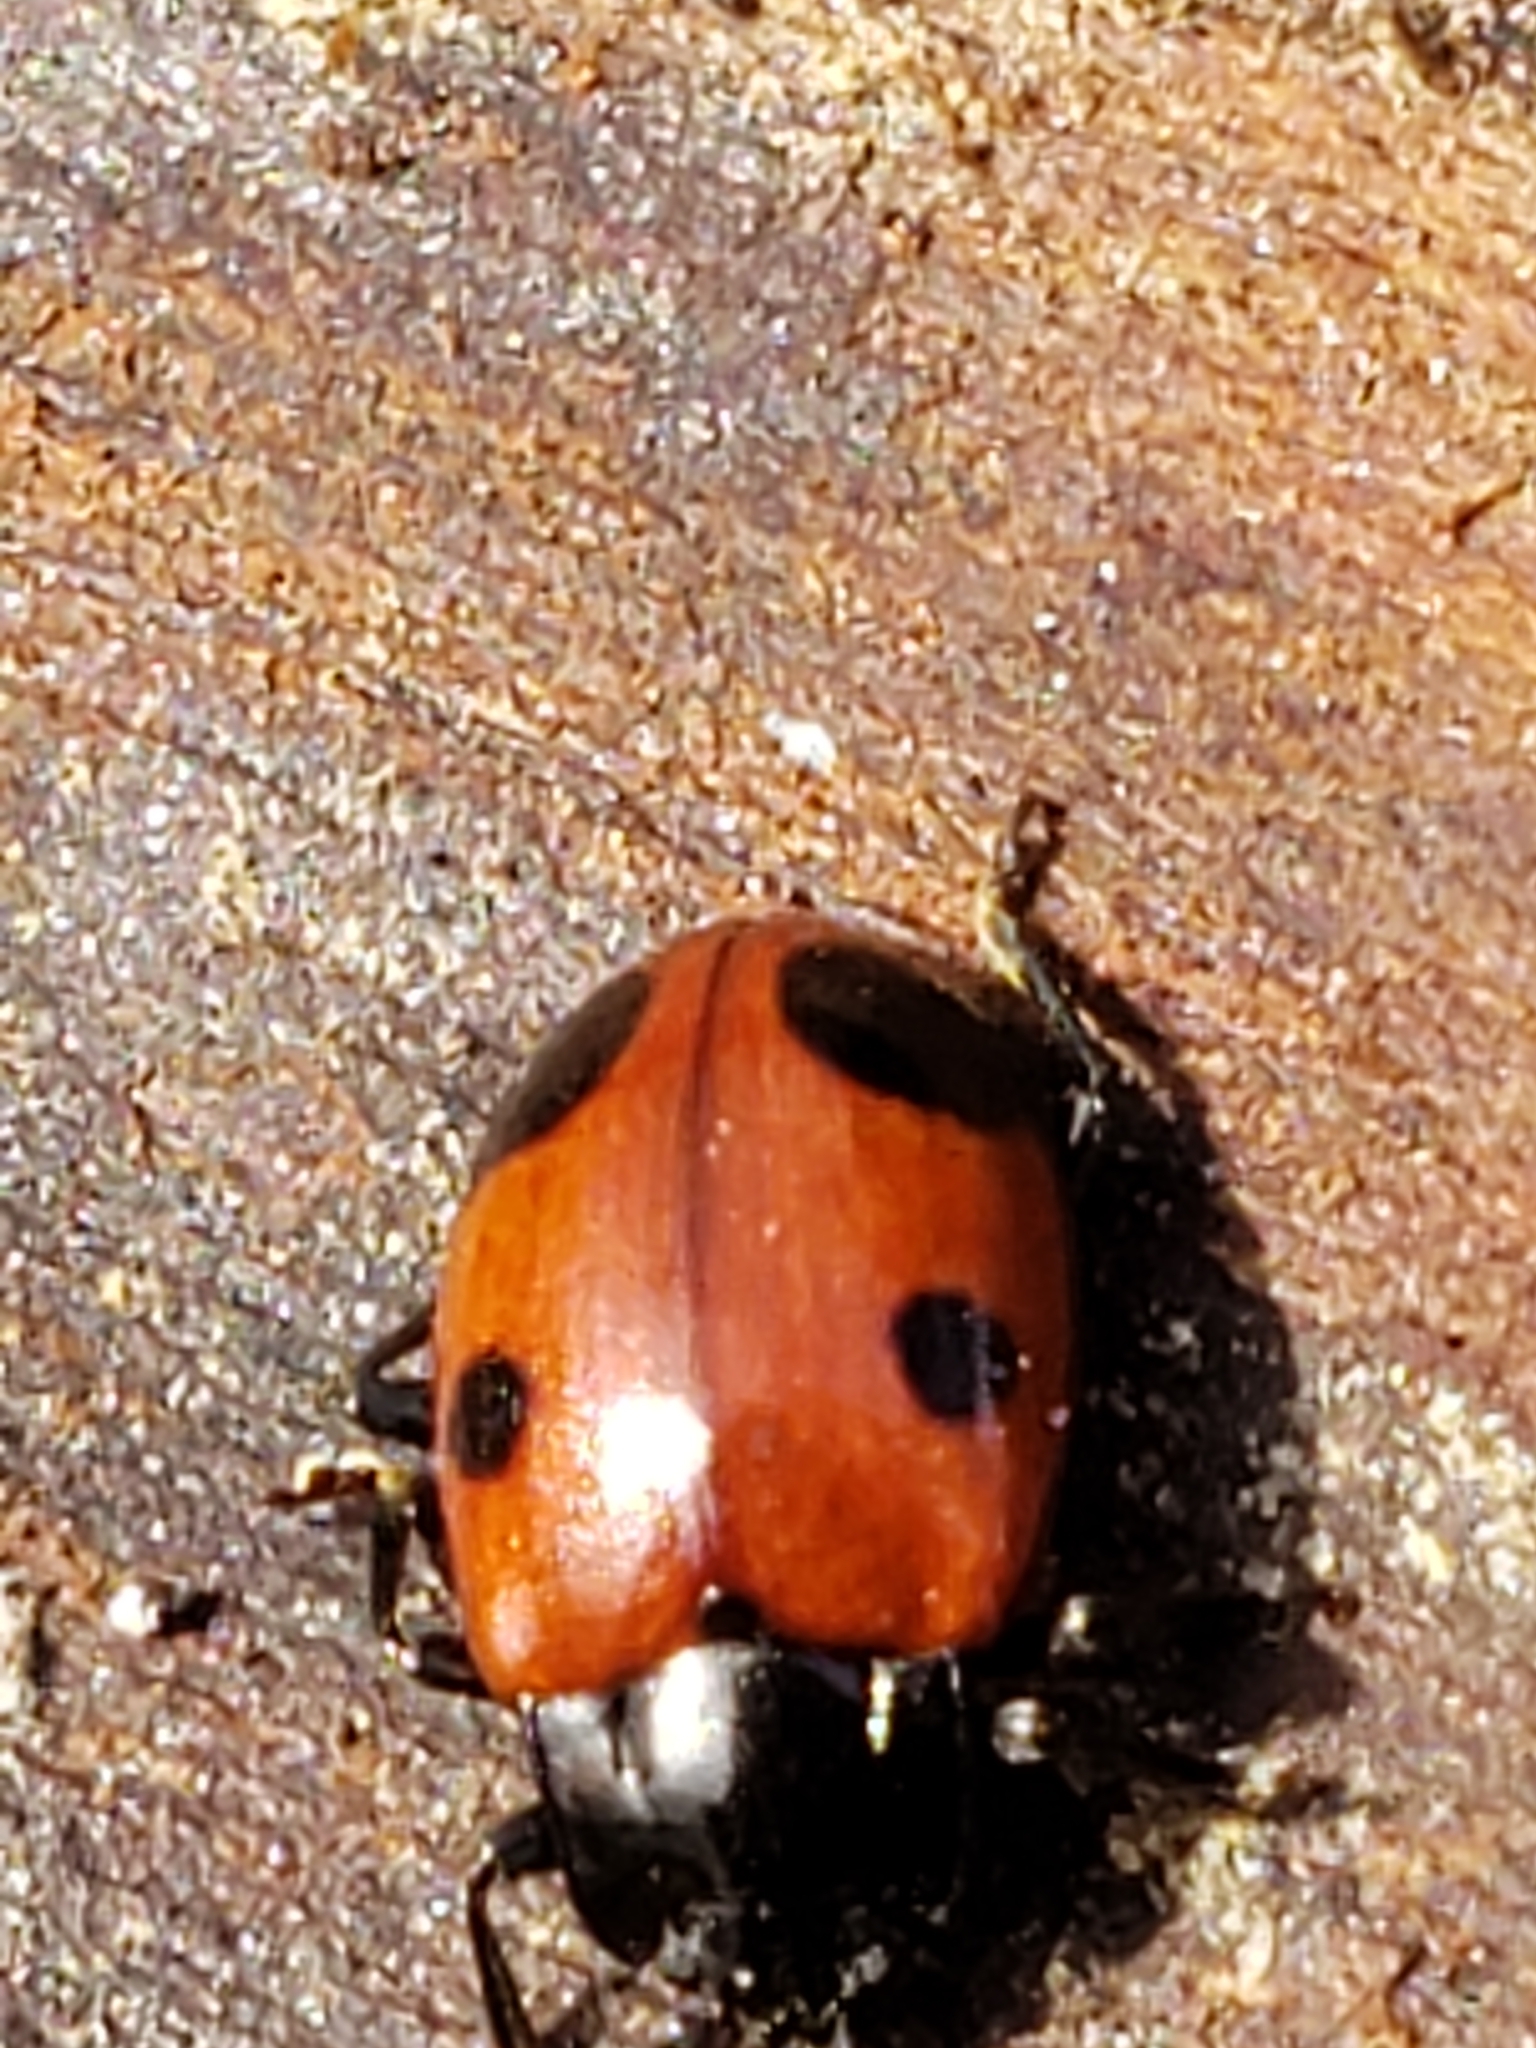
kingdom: Animalia
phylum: Arthropoda
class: Insecta
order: Coleoptera
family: Endomychidae
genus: Endomychus
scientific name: Endomychus biguttatus
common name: Handsome fungus beetle
